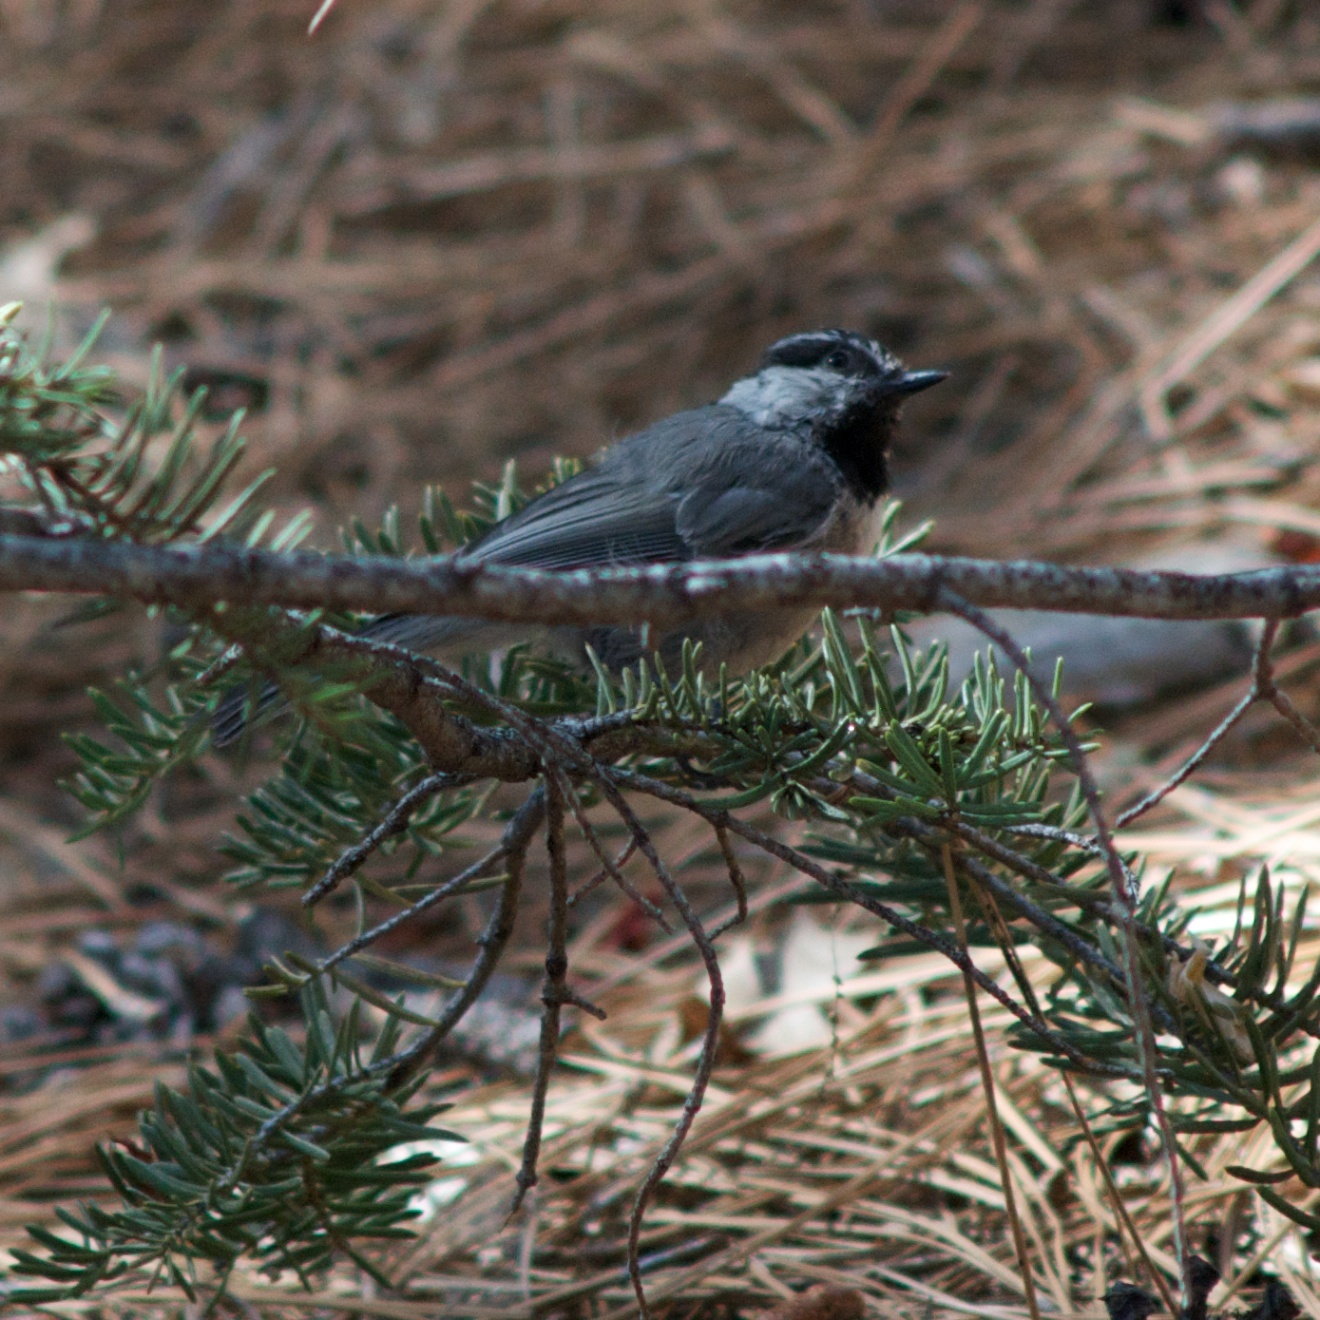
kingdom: Animalia
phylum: Chordata
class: Aves
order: Passeriformes
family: Paridae
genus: Poecile
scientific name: Poecile gambeli
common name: Mountain chickadee
